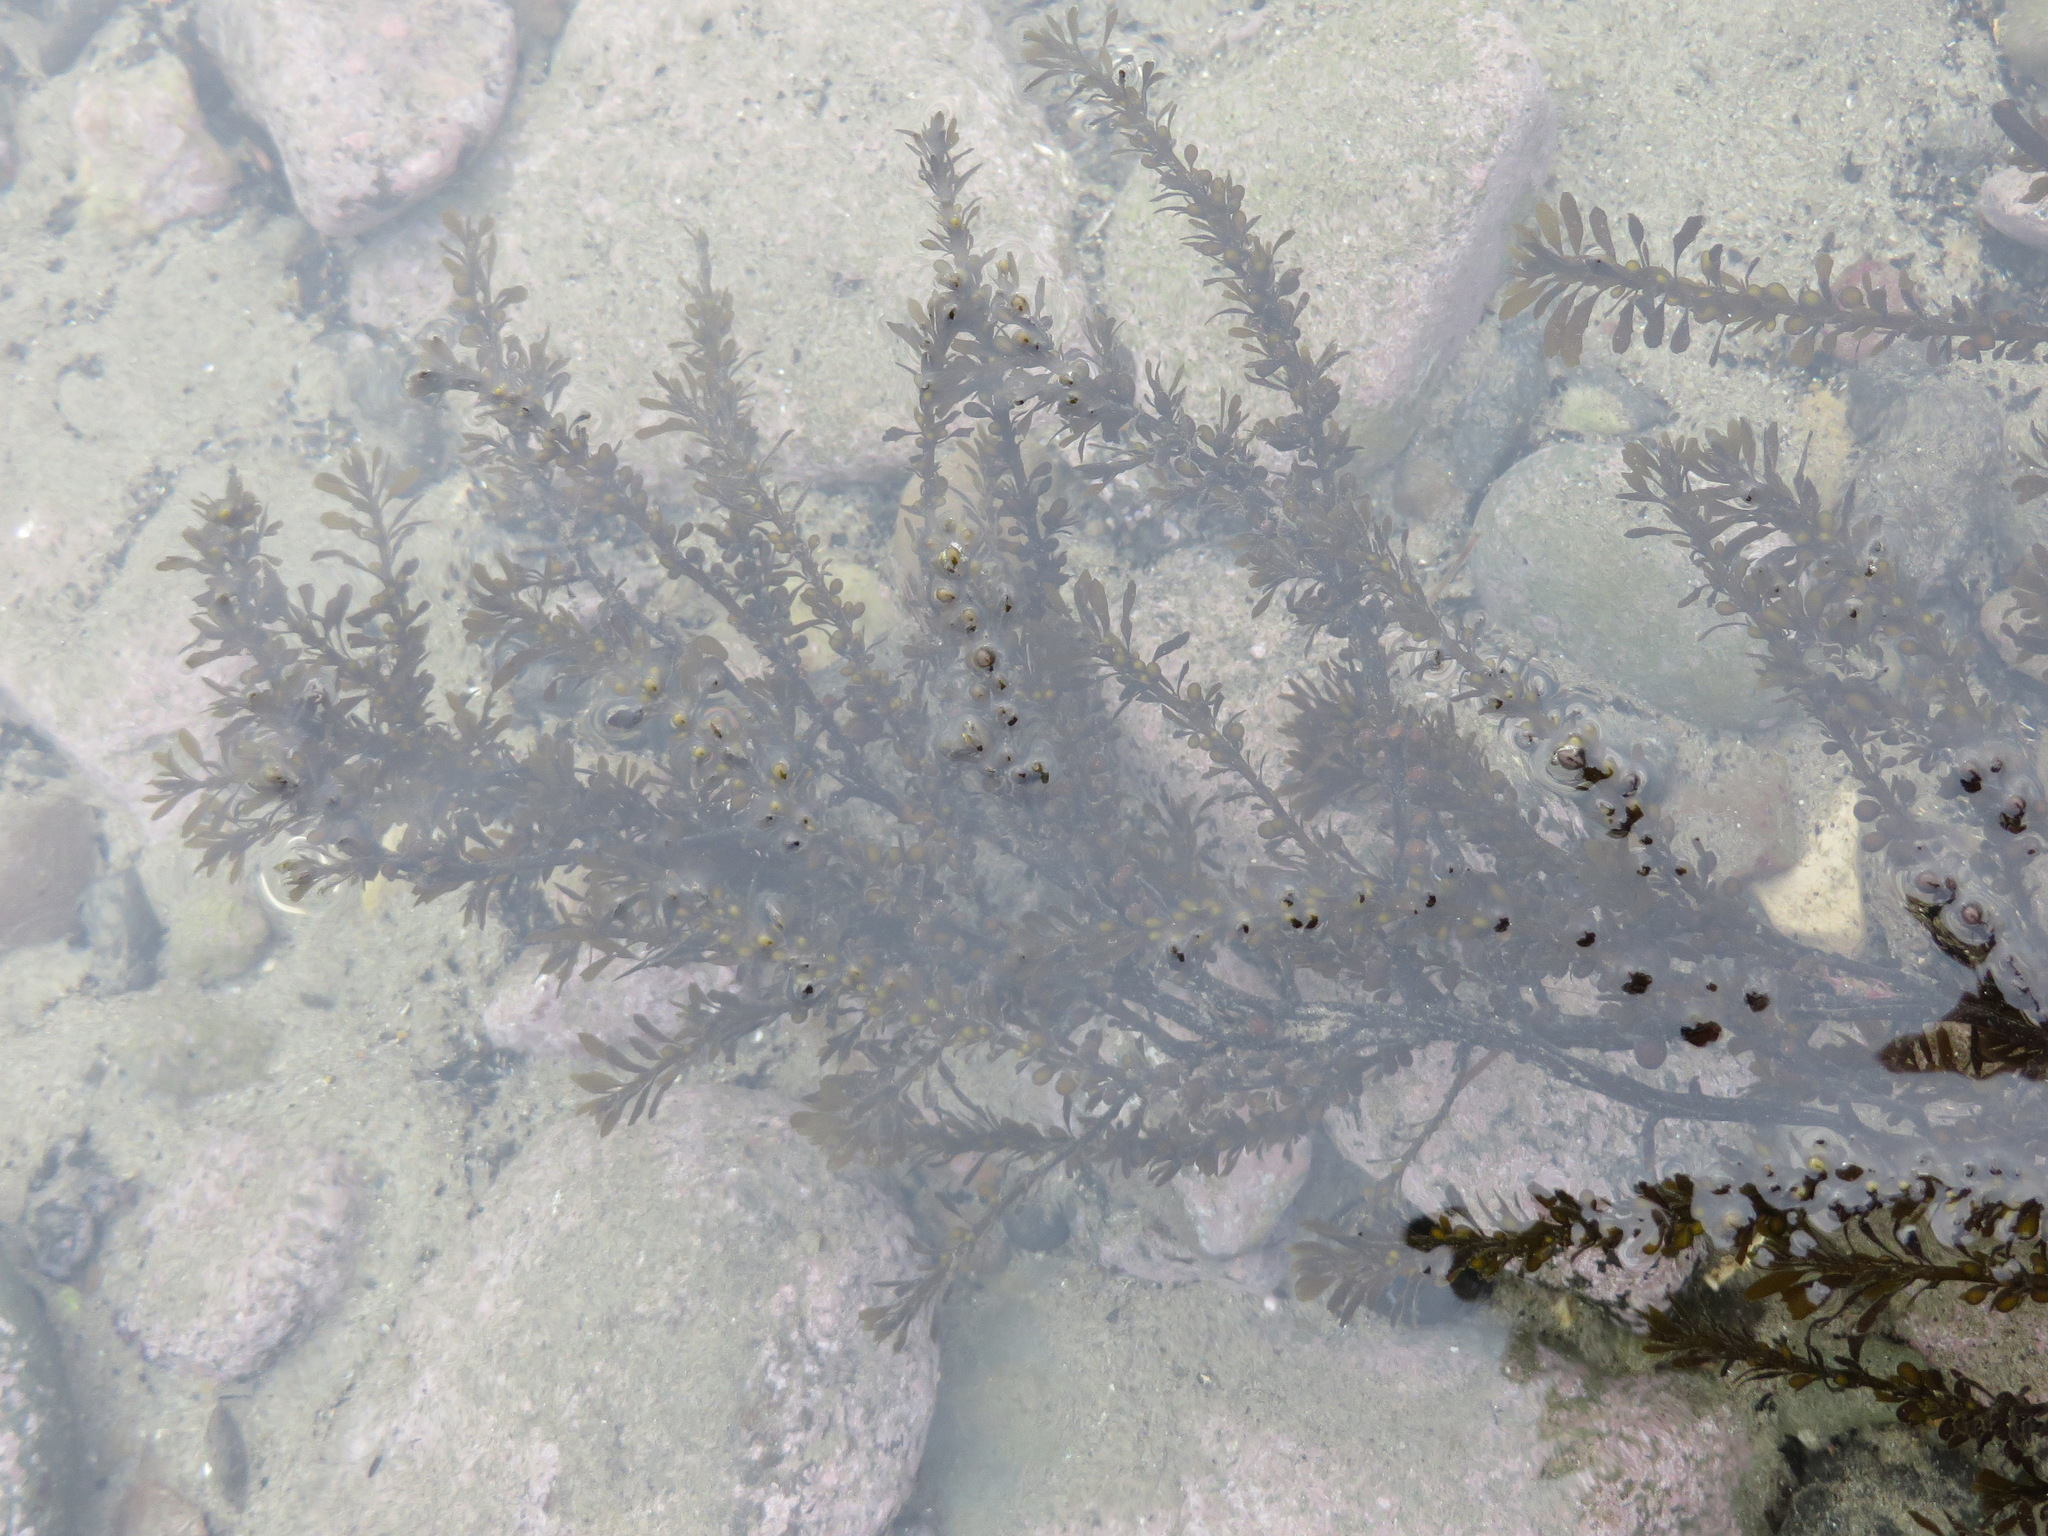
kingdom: Chromista
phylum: Ochrophyta
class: Phaeophyceae
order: Fucales
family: Sargassaceae
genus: Sargassum
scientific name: Sargassum muticum
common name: Japweed
